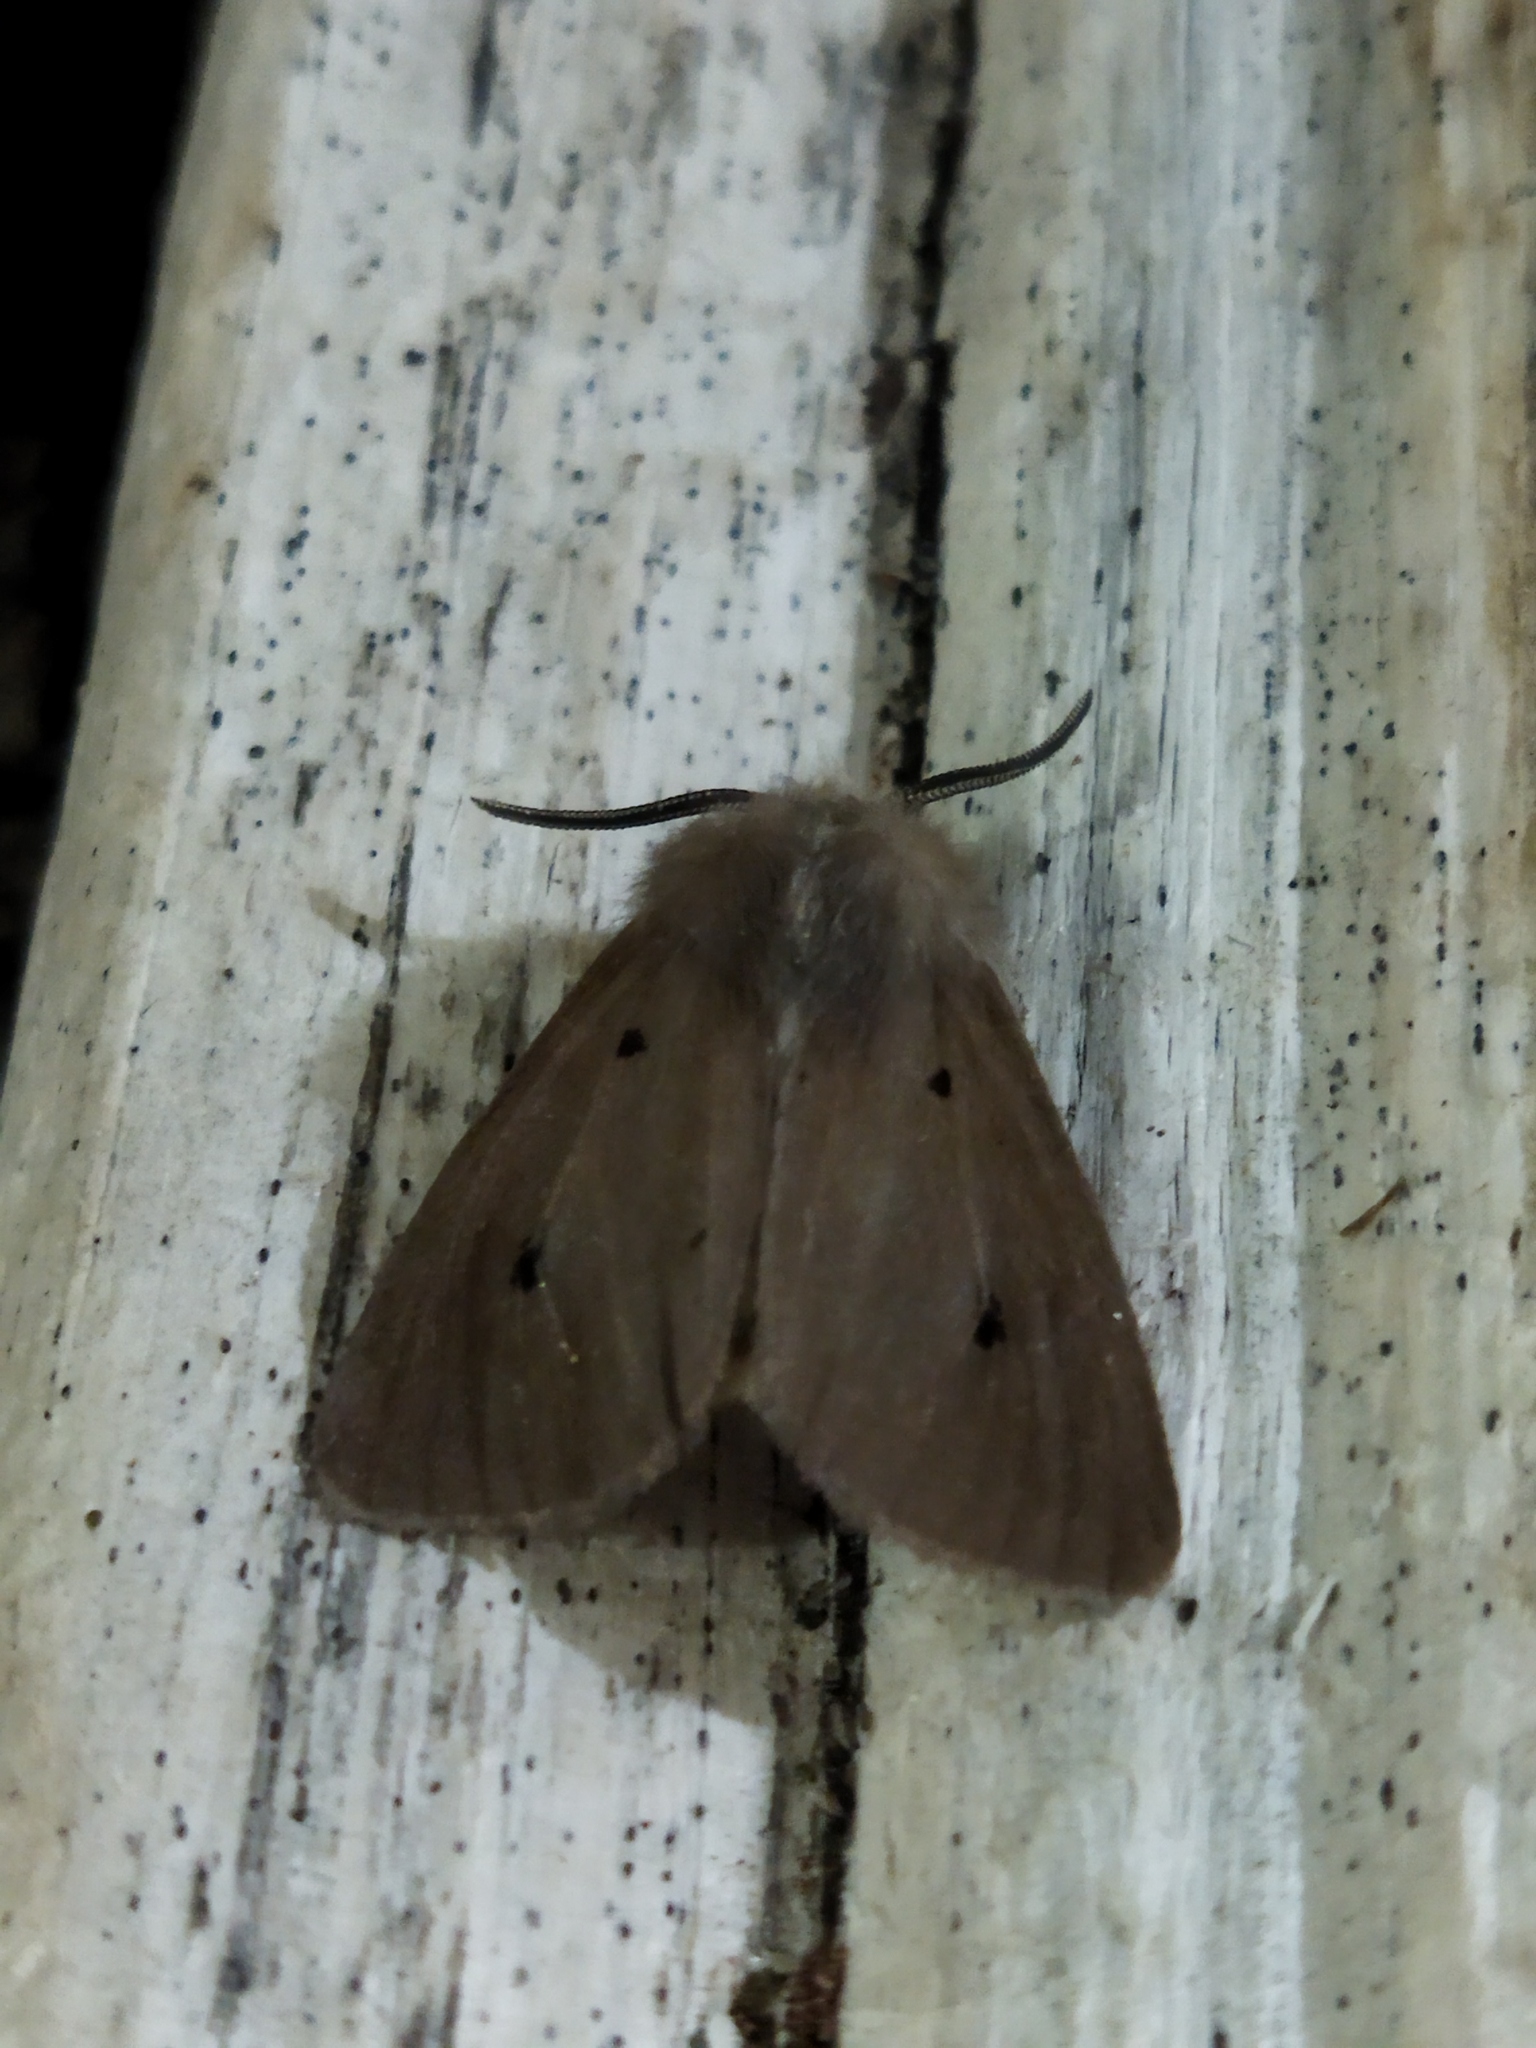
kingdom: Animalia
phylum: Arthropoda
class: Insecta
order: Lepidoptera
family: Erebidae
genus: Diaphora
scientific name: Diaphora mendica
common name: Muslin moth
